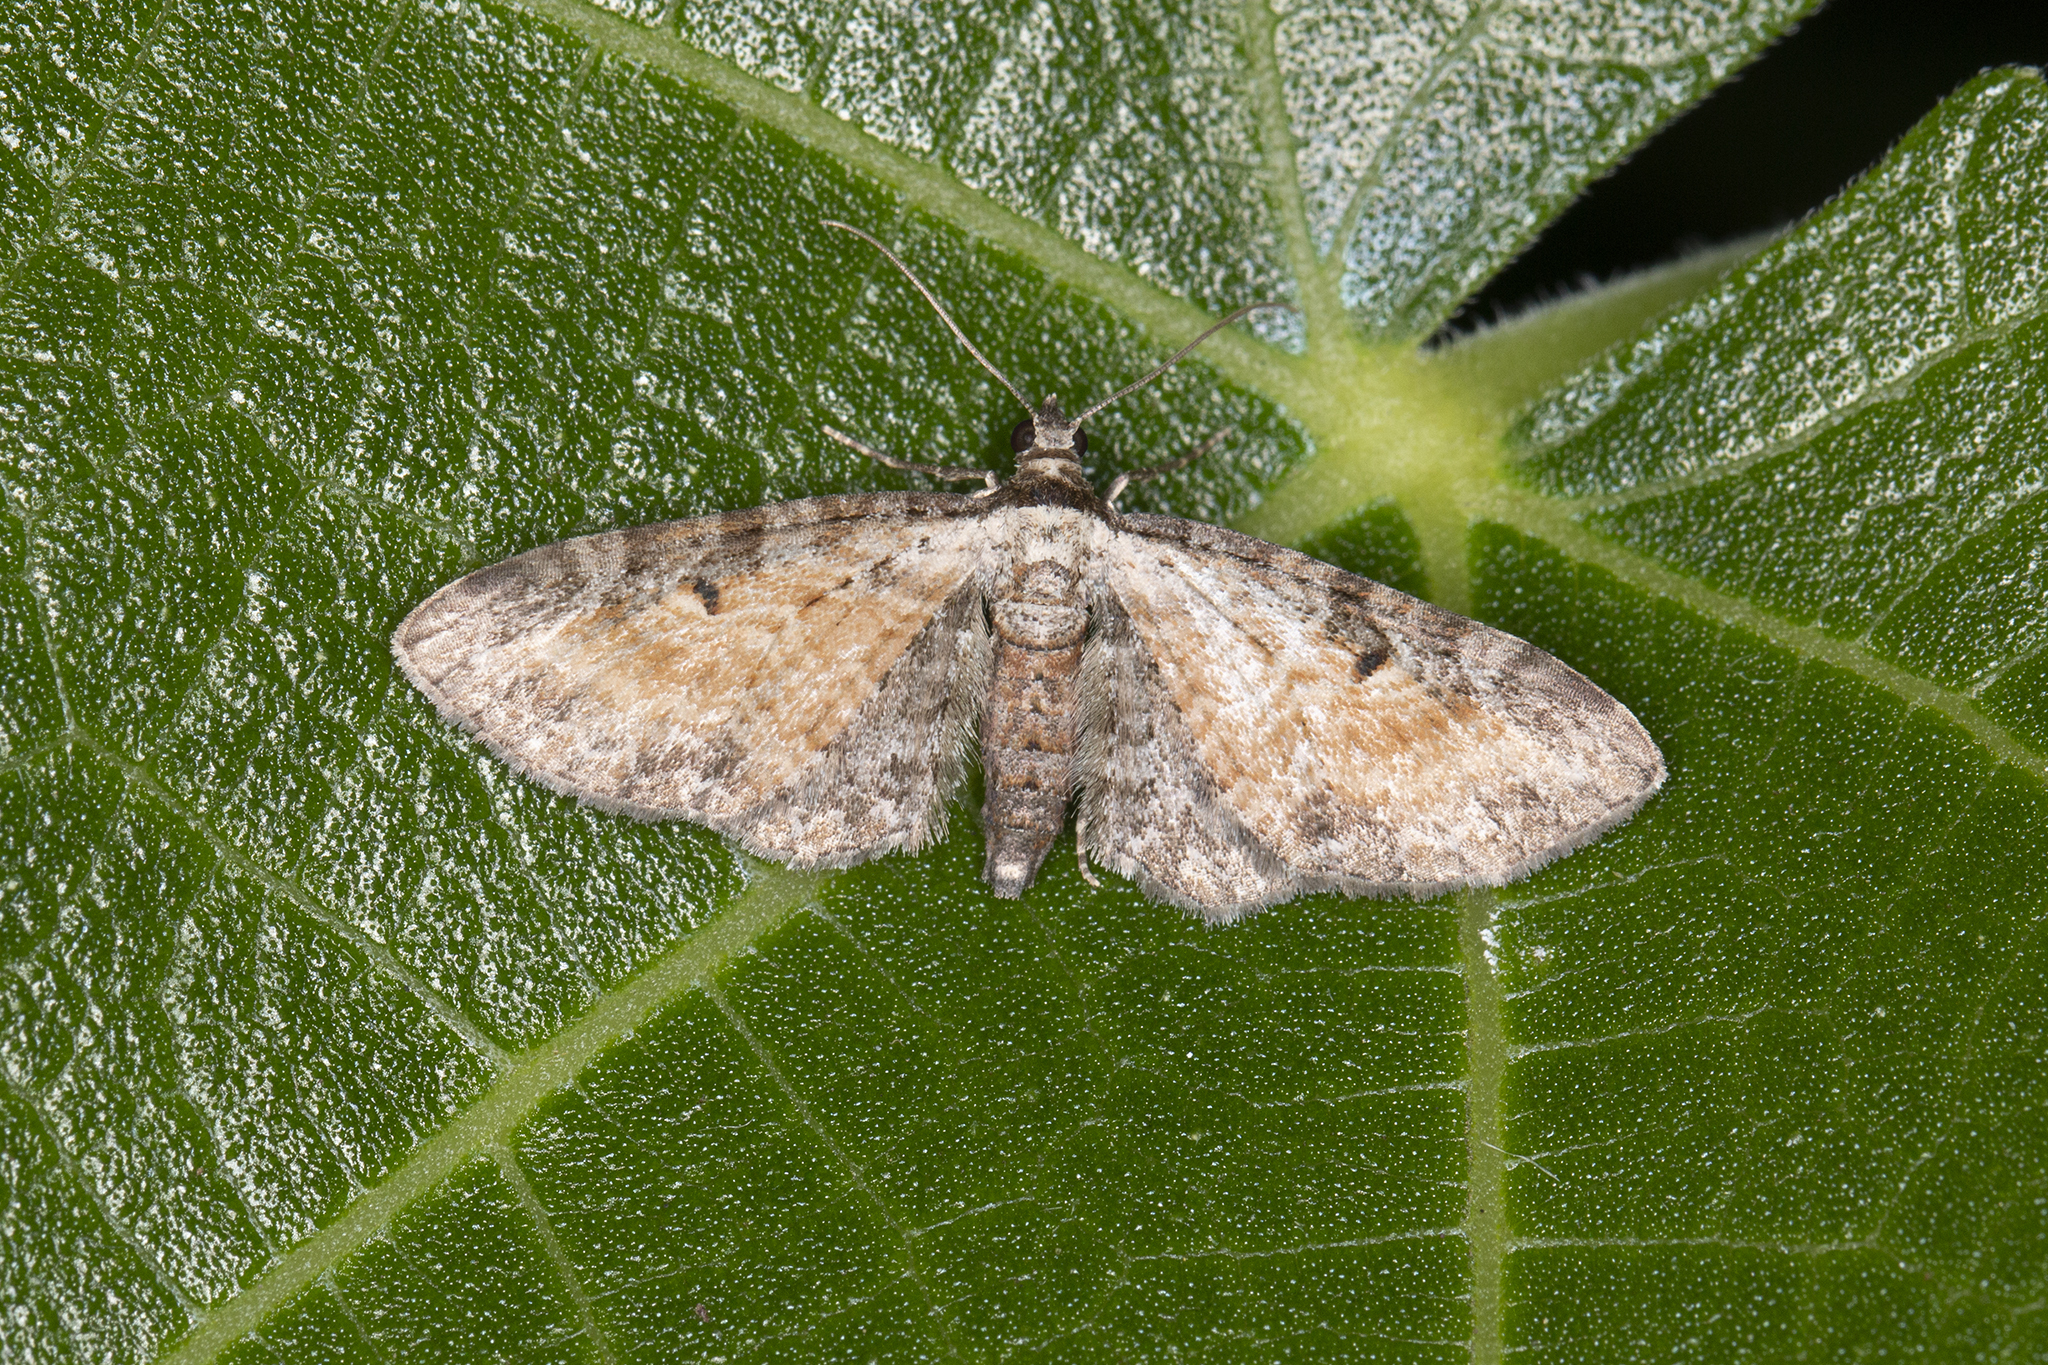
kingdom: Animalia
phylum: Arthropoda
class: Insecta
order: Lepidoptera
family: Geometridae
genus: Eupithecia
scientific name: Eupithecia icterata
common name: Tawny speckled pug
